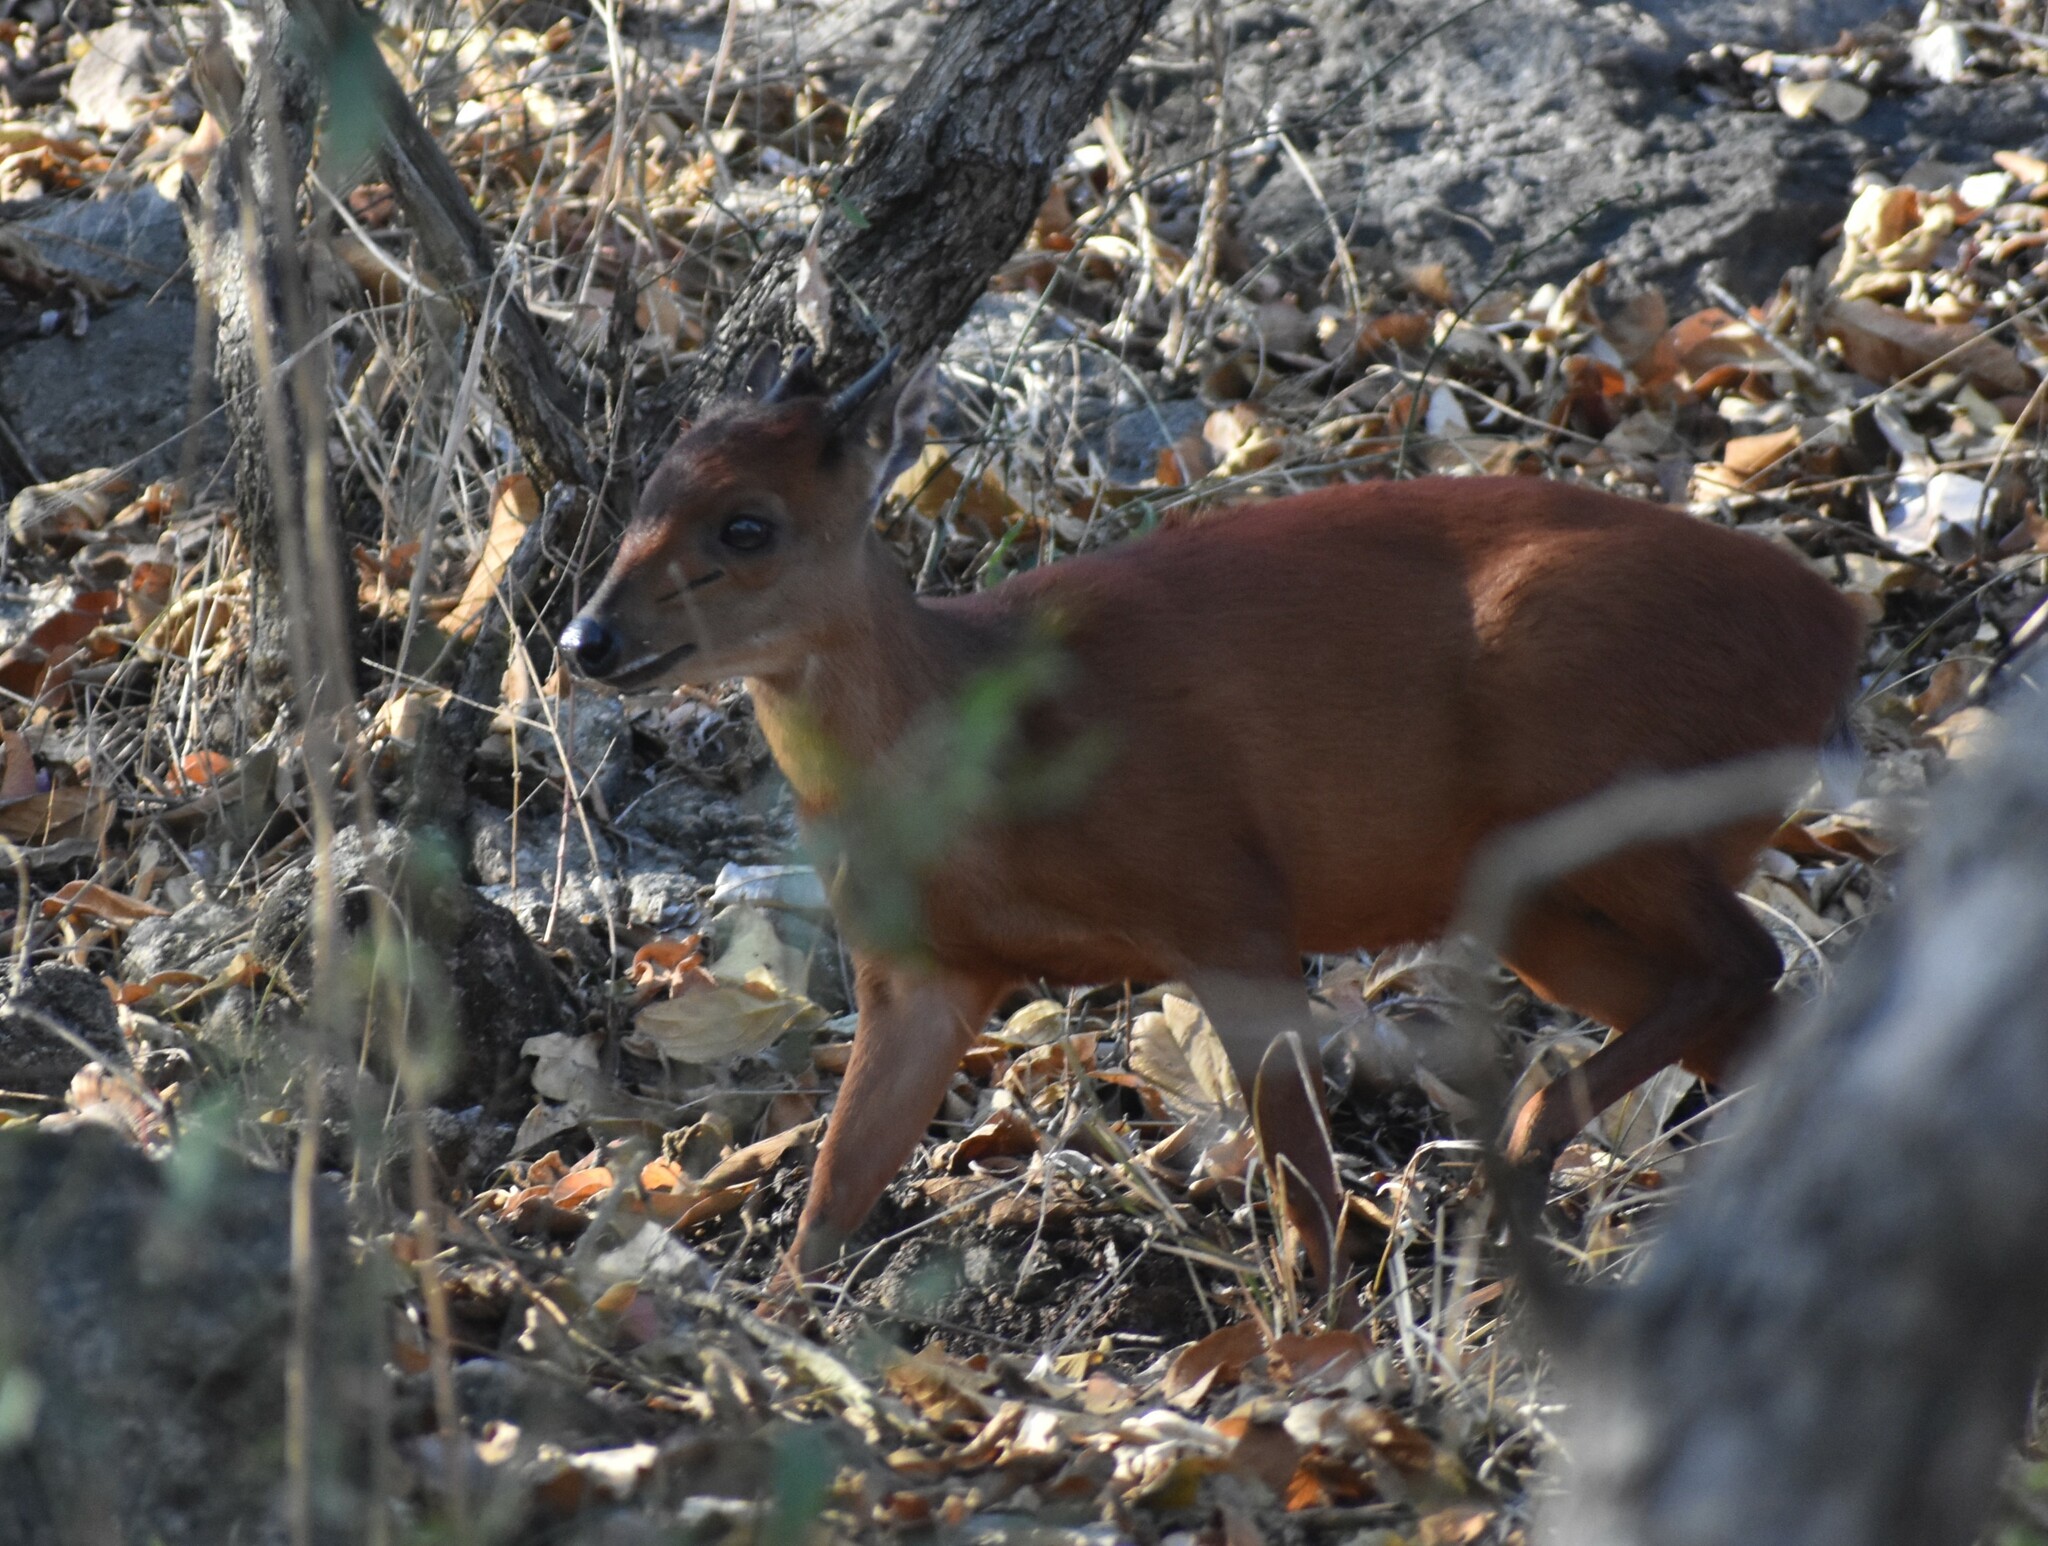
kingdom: Animalia
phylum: Chordata
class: Mammalia
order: Artiodactyla
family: Bovidae
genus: Cephalophus
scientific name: Cephalophus natalensis
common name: Red duiker
